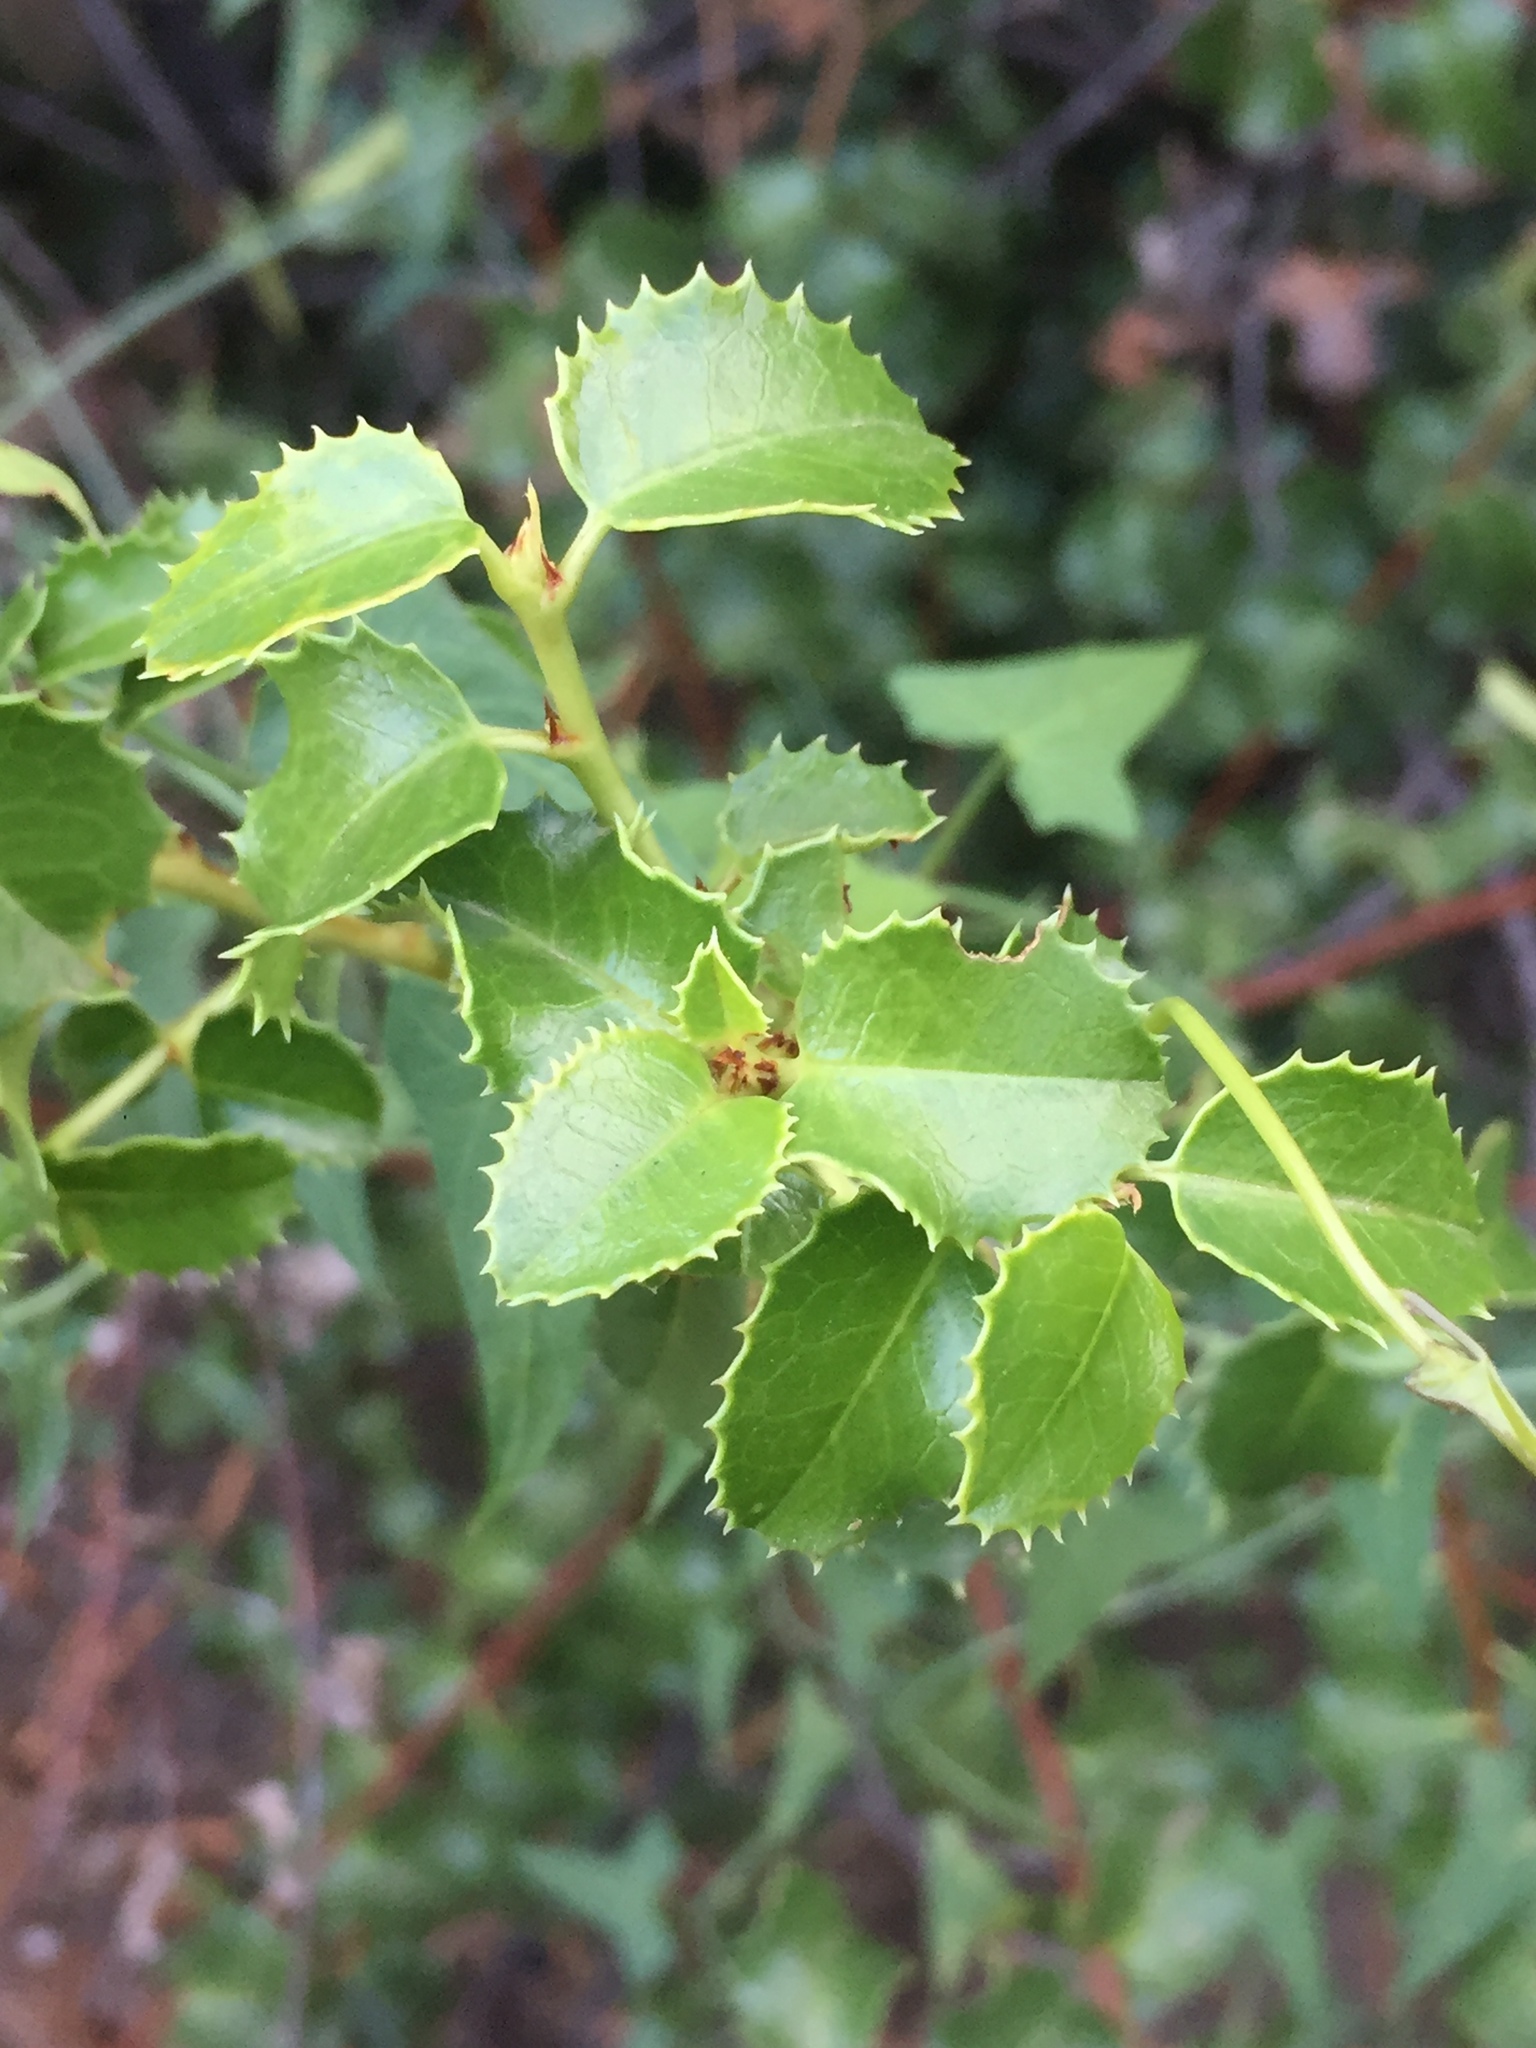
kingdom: Plantae
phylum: Tracheophyta
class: Magnoliopsida
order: Rosales
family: Rosaceae
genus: Prunus
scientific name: Prunus ilicifolia
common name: Hollyleaf cherry
